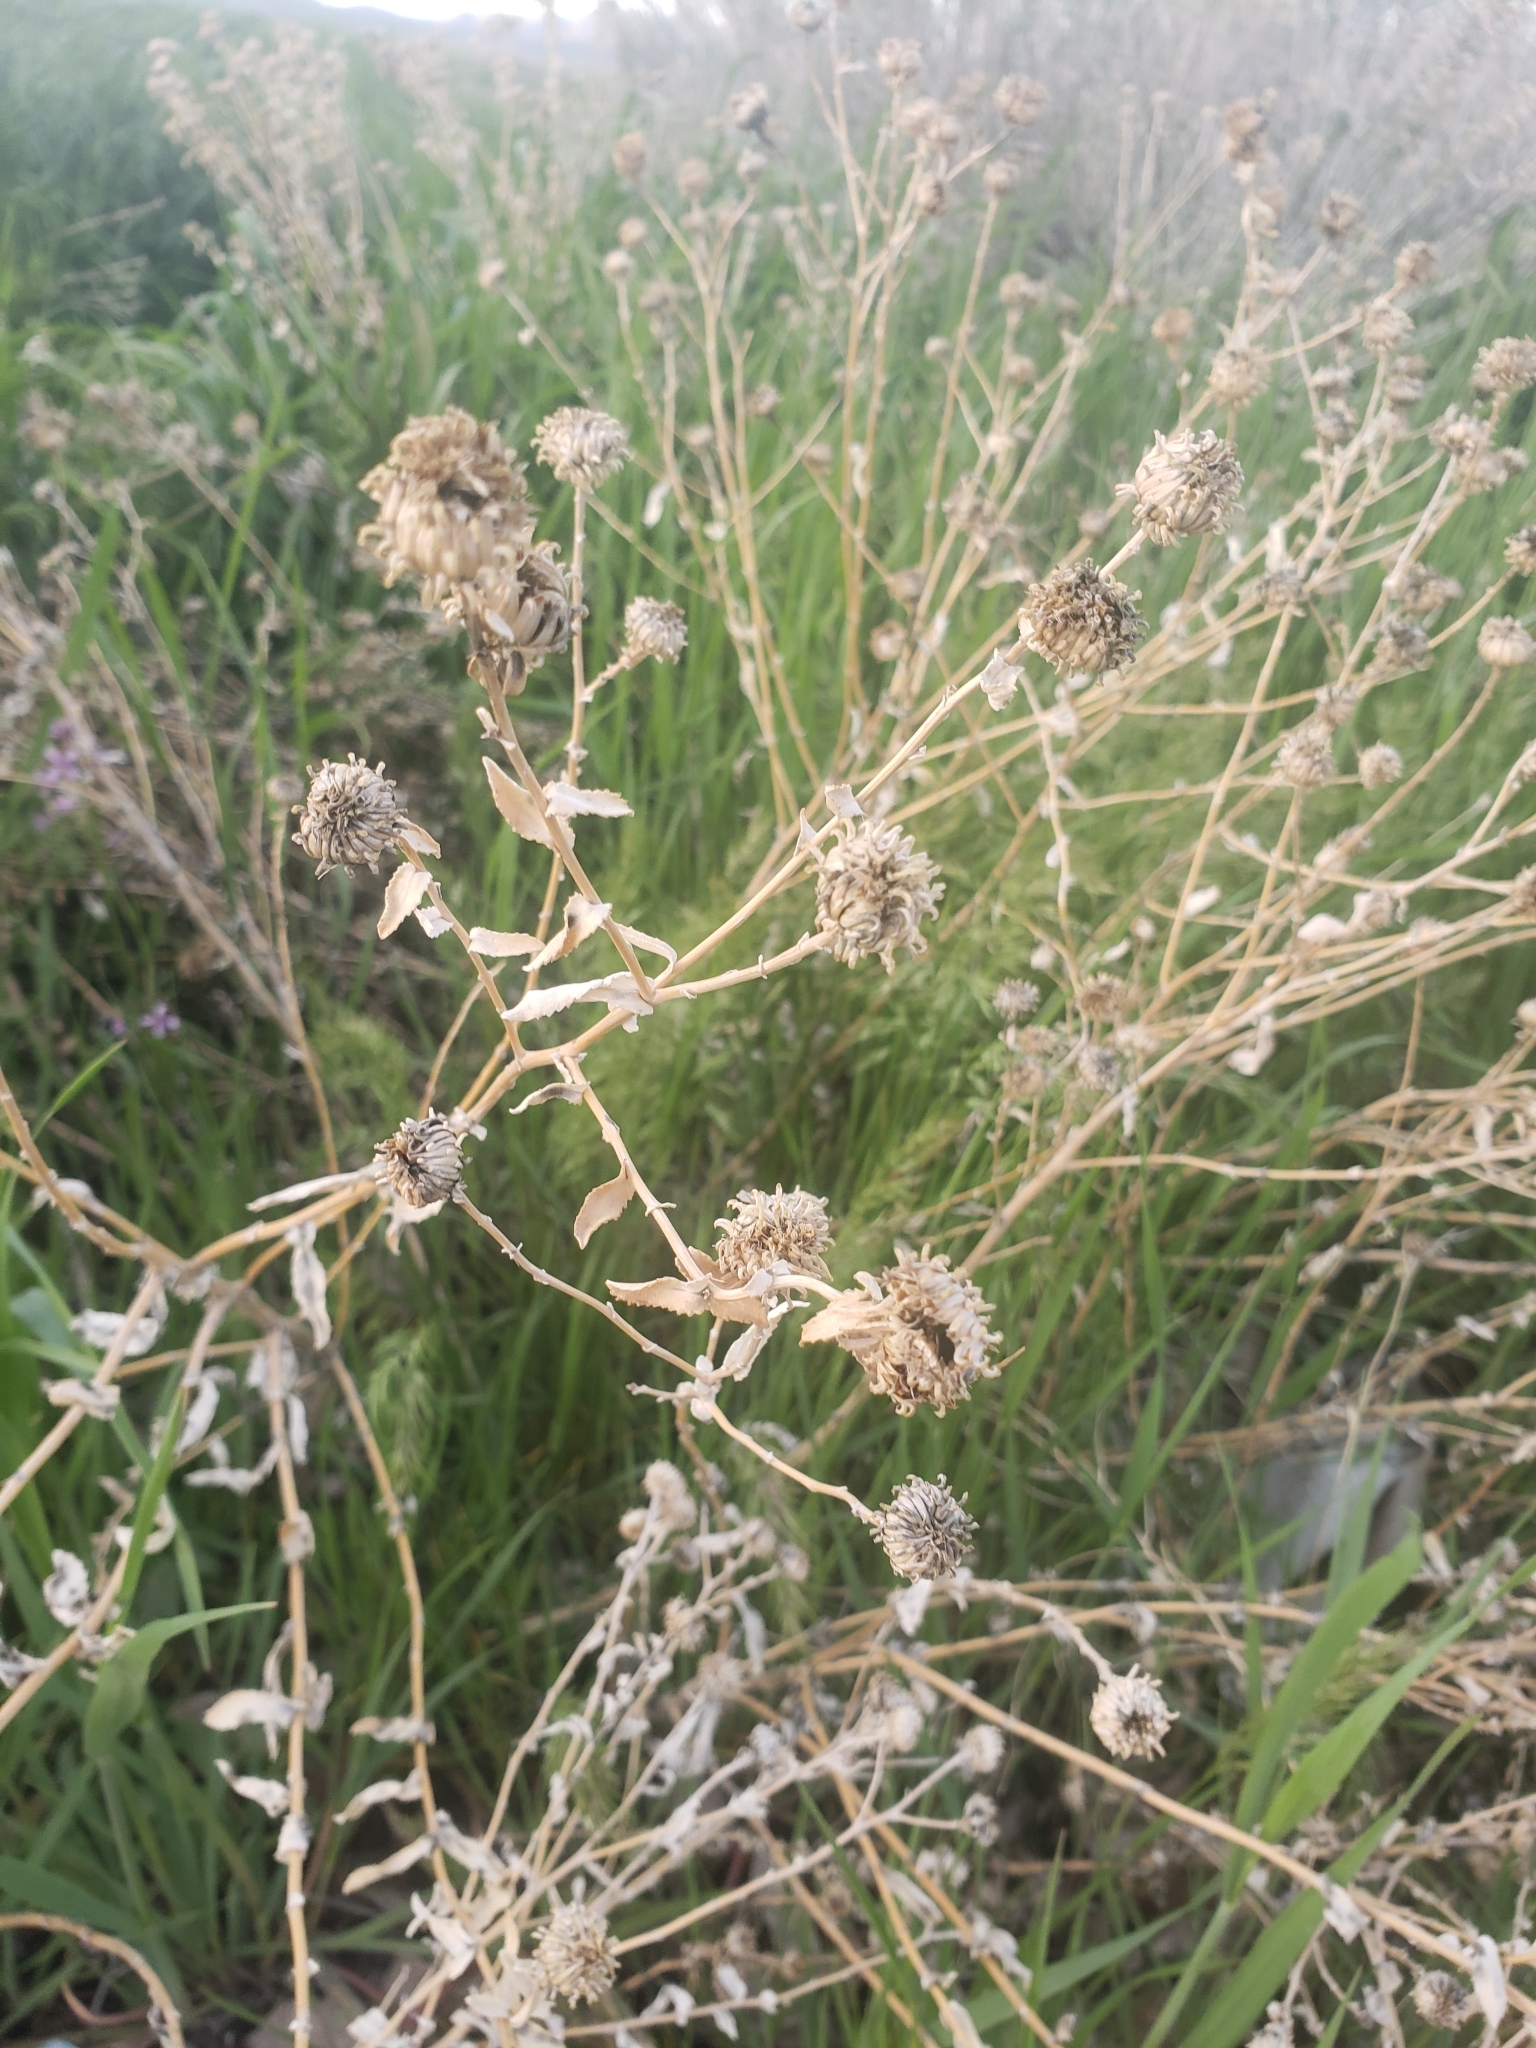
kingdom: Plantae
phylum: Tracheophyta
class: Magnoliopsida
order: Asterales
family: Asteraceae
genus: Grindelia
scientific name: Grindelia squarrosa
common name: Curly-cup gumweed
